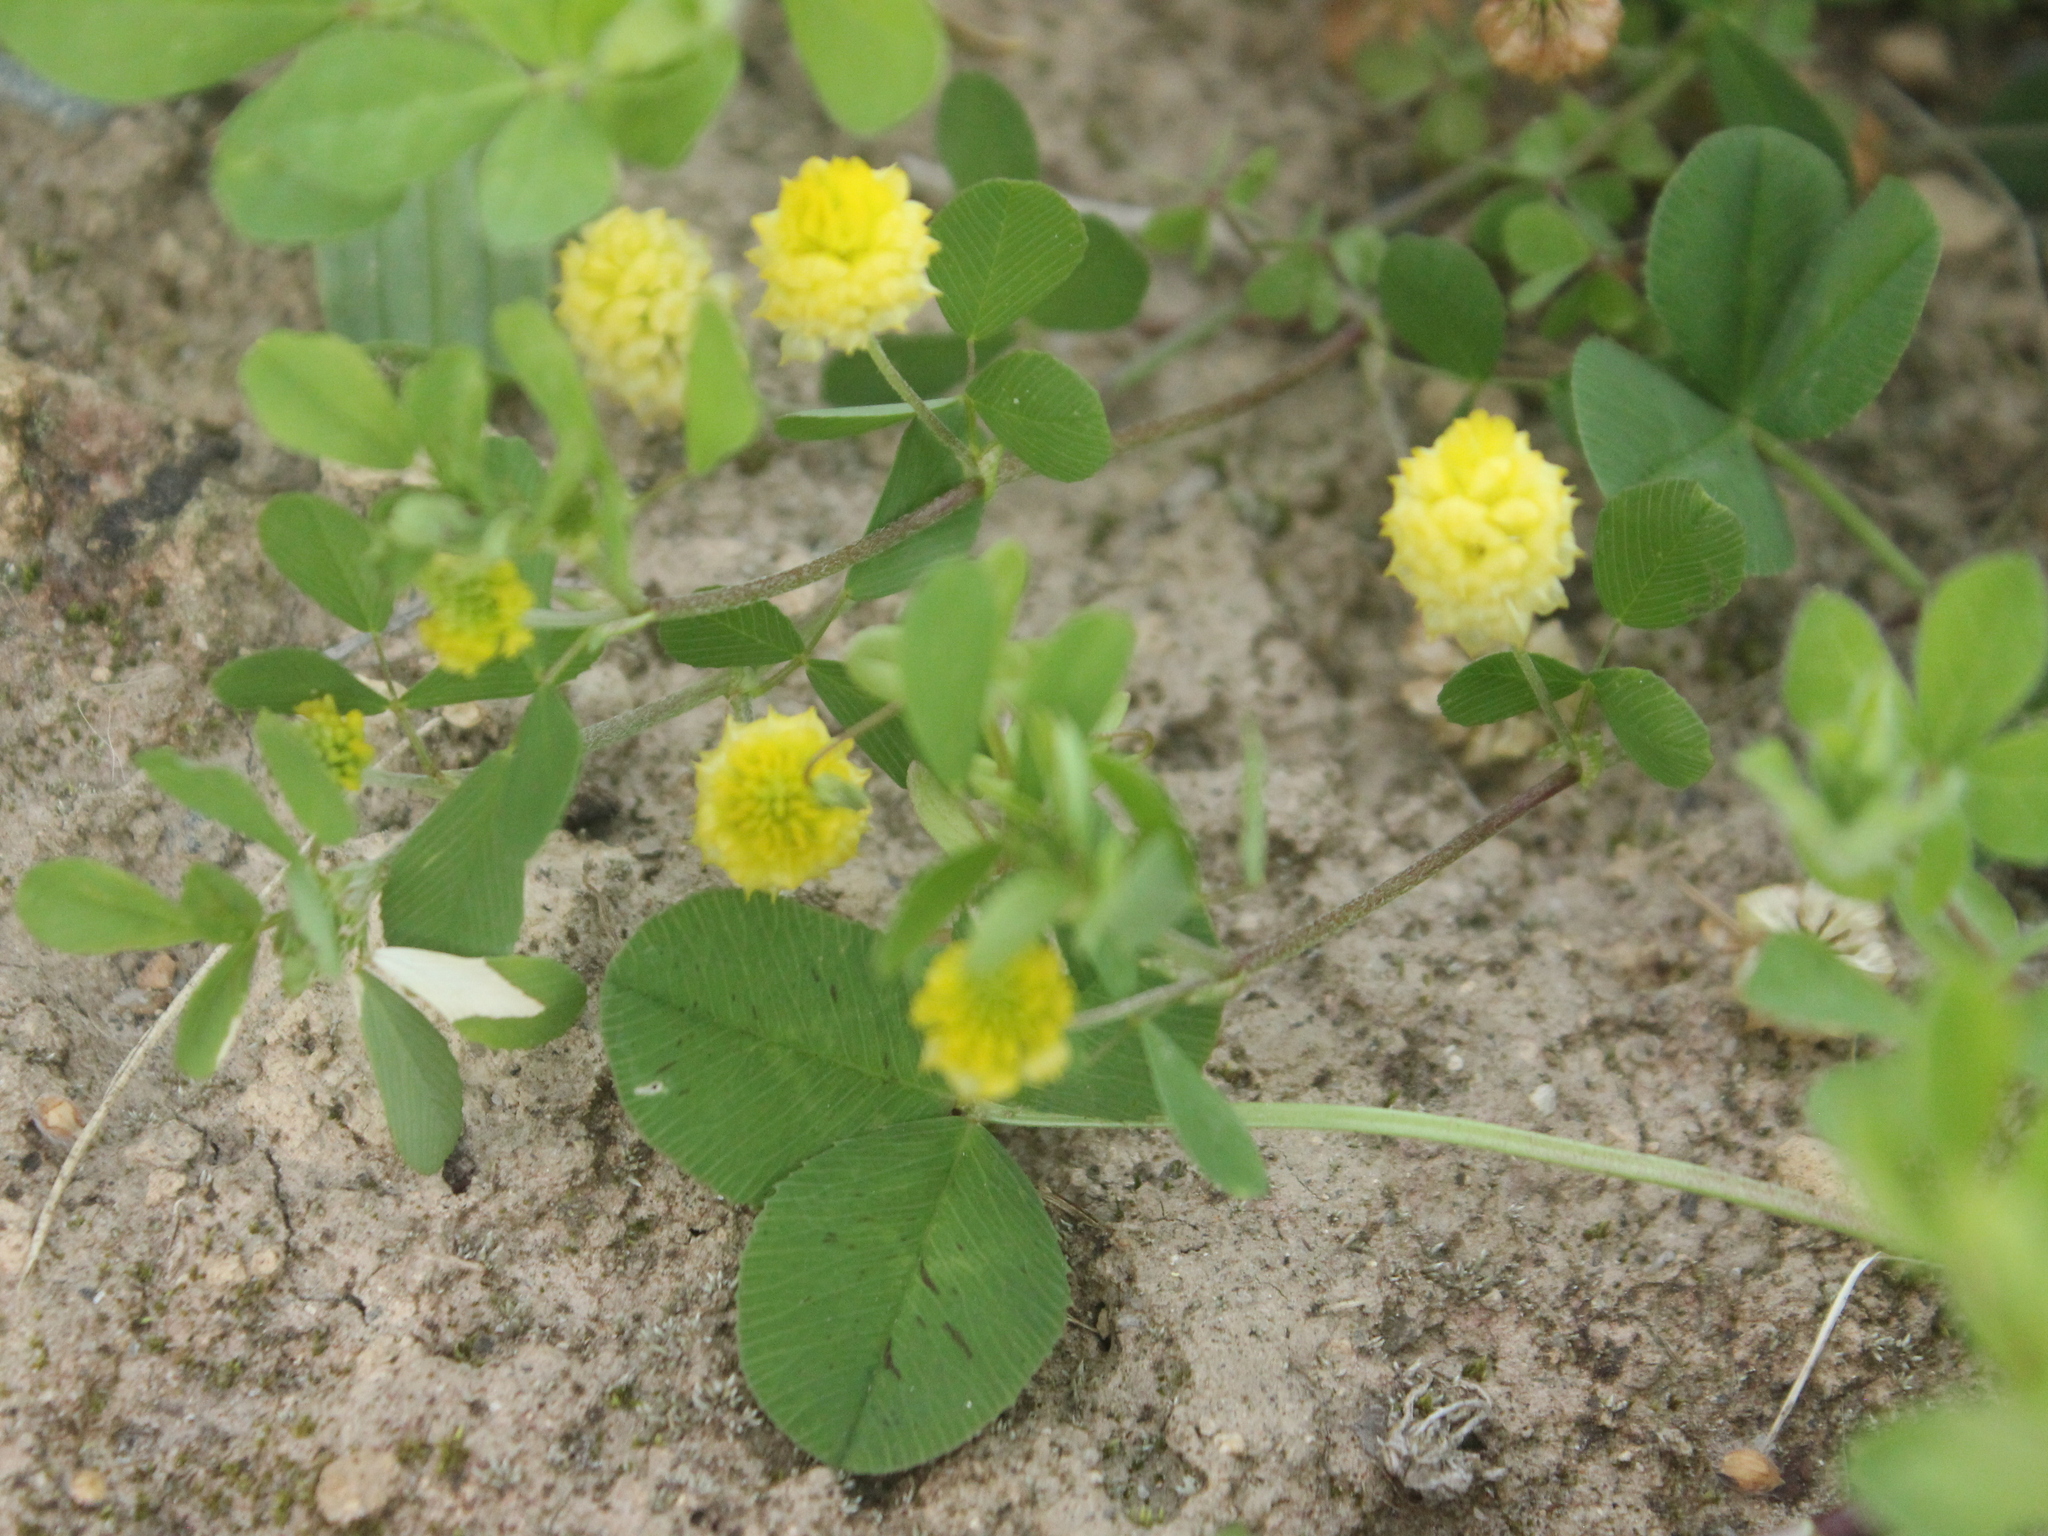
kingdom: Plantae
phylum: Tracheophyta
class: Magnoliopsida
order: Fabales
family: Fabaceae
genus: Trifolium
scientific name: Trifolium campestre
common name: Field clover
